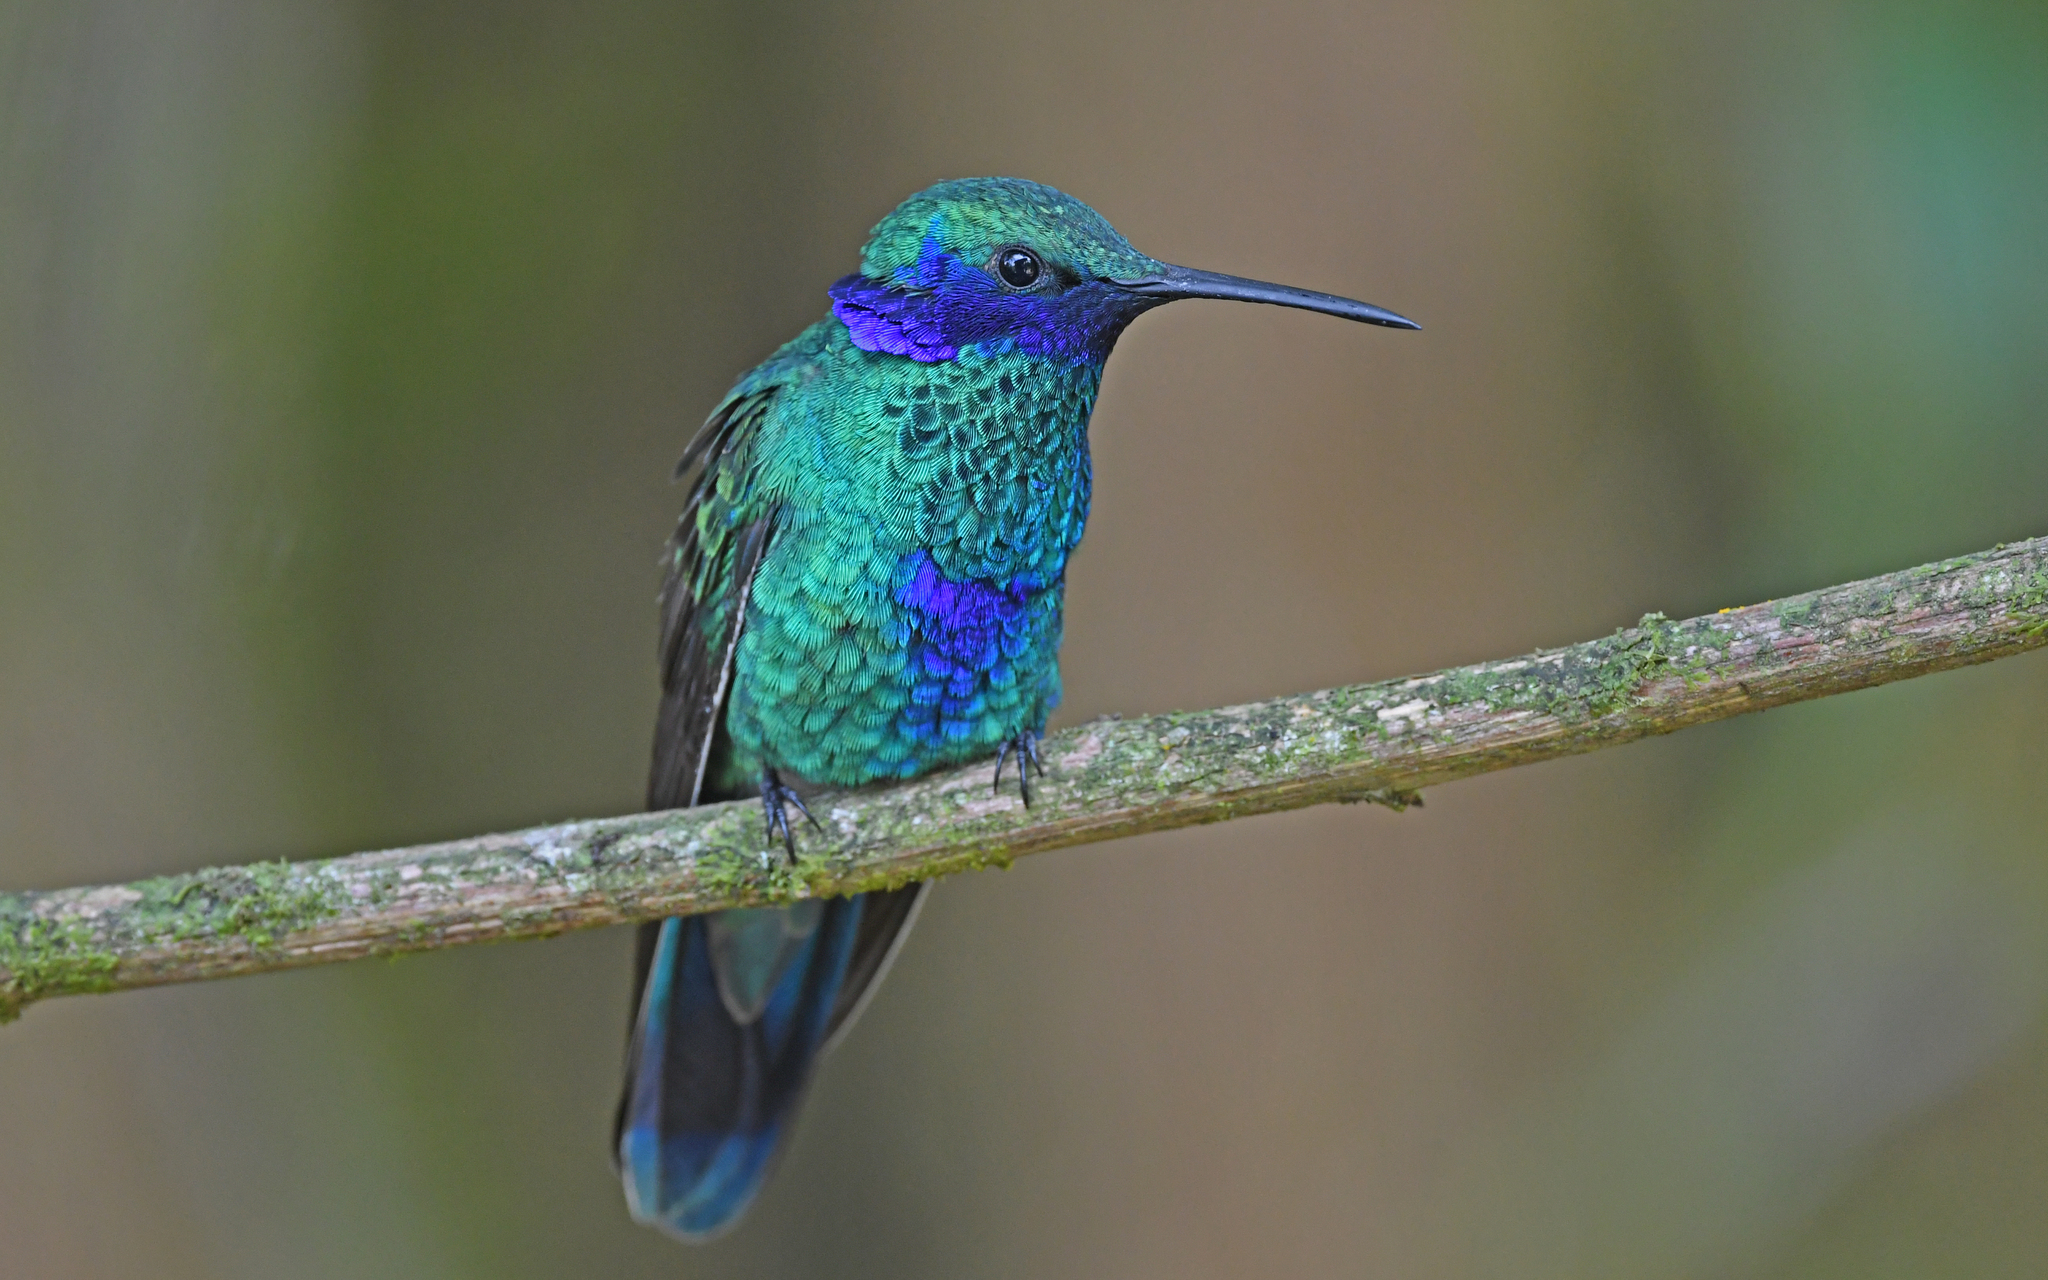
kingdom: Animalia
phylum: Chordata
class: Aves
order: Apodiformes
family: Trochilidae
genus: Colibri
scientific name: Colibri coruscans
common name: Sparkling violetear
